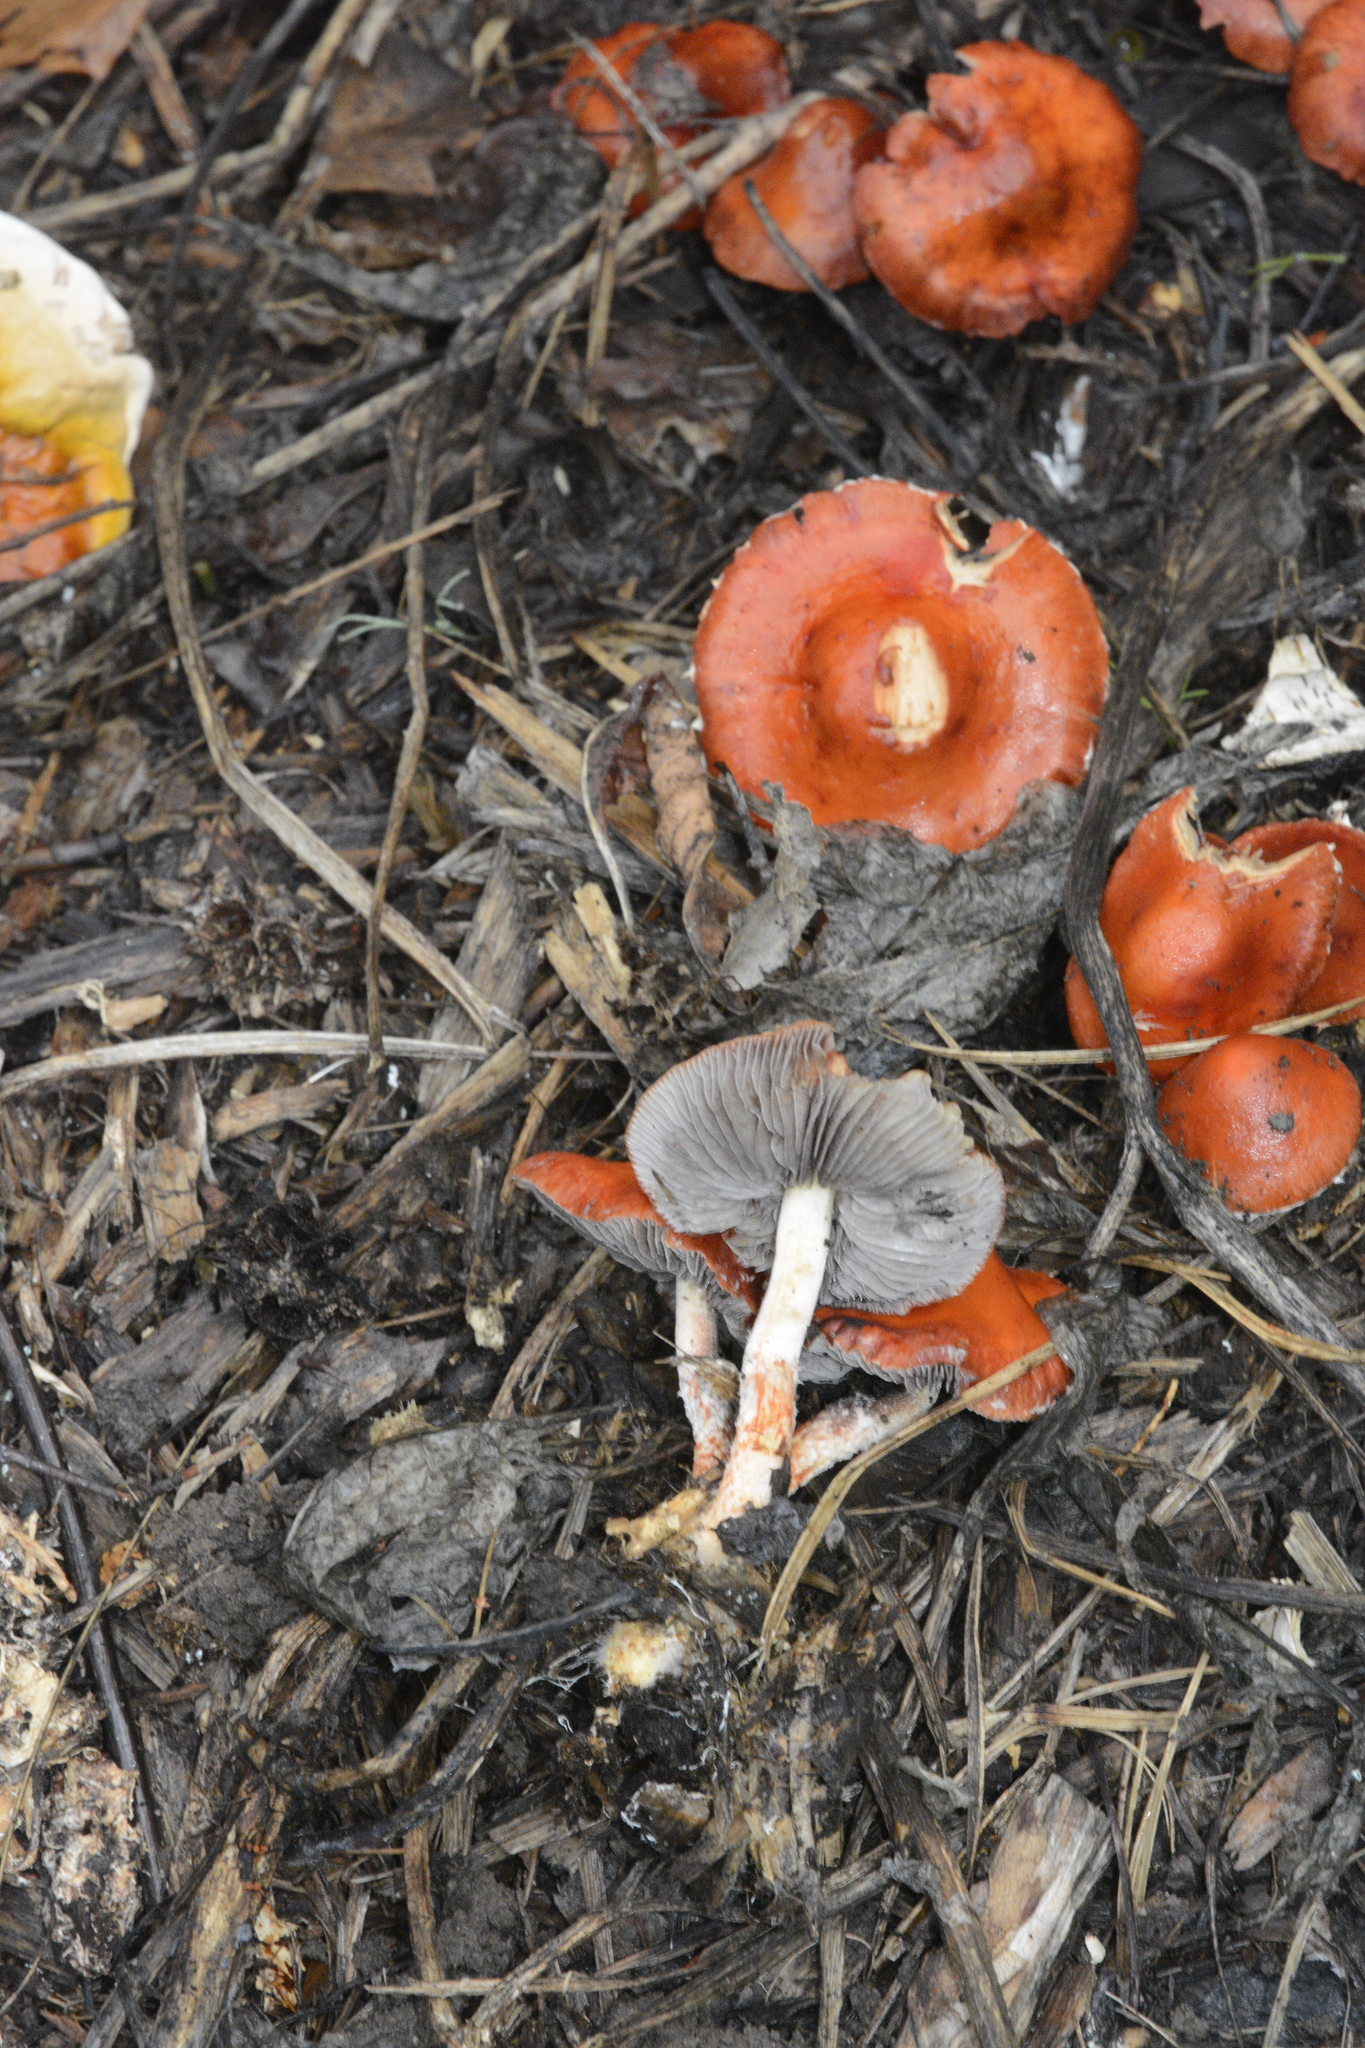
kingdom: Fungi
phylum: Basidiomycota
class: Agaricomycetes
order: Agaricales
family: Strophariaceae
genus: Leratiomyces
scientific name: Leratiomyces ceres
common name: Redlead roundhead
